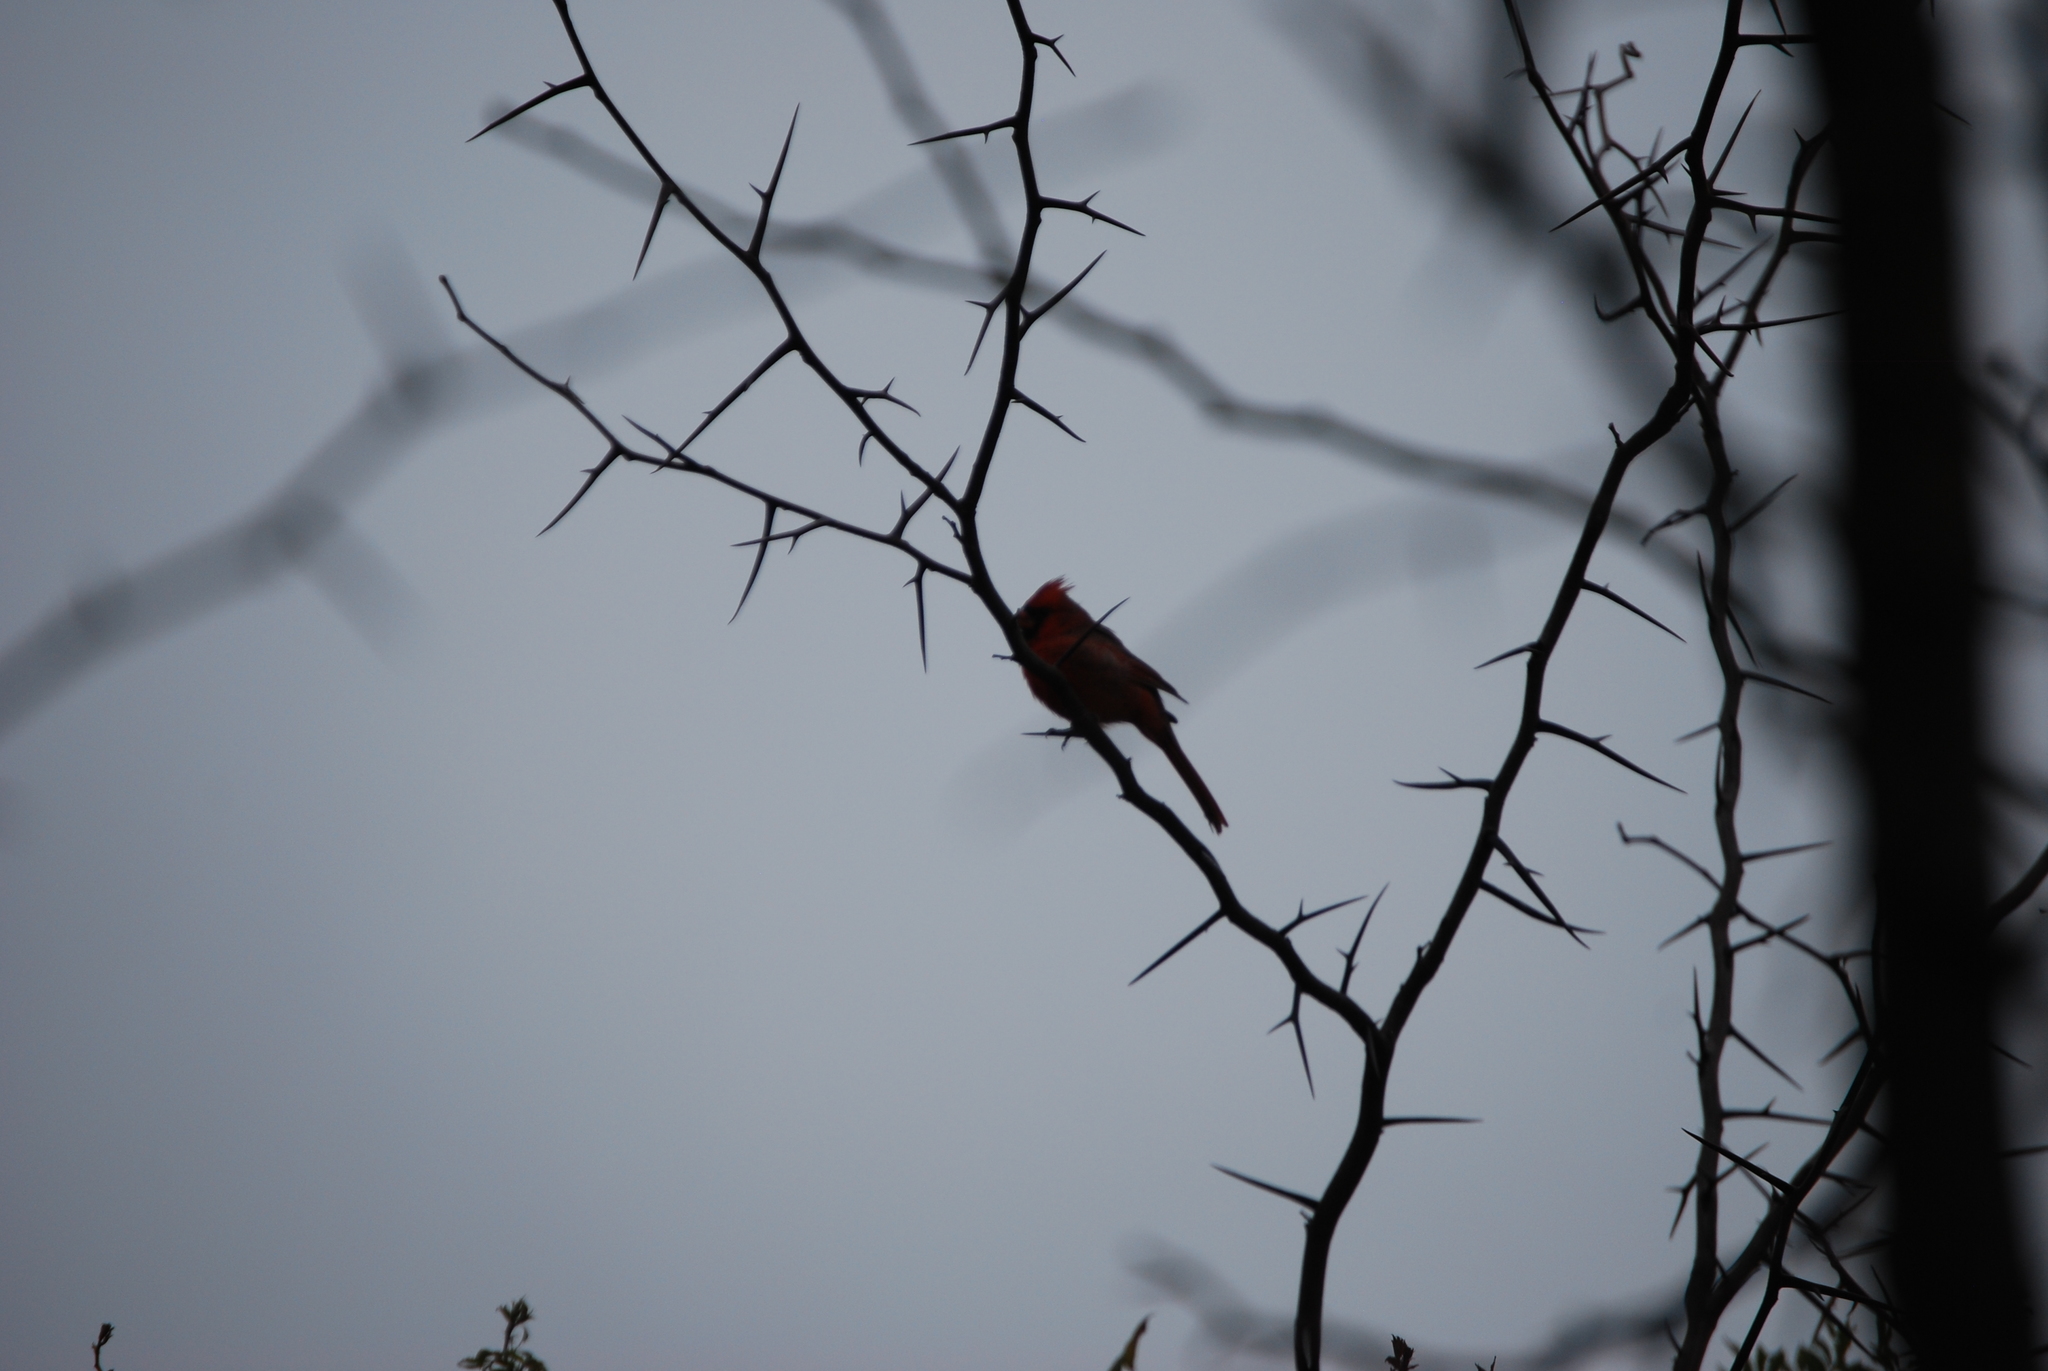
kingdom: Animalia
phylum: Chordata
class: Aves
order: Passeriformes
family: Cardinalidae
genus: Cardinalis
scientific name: Cardinalis cardinalis
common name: Northern cardinal
